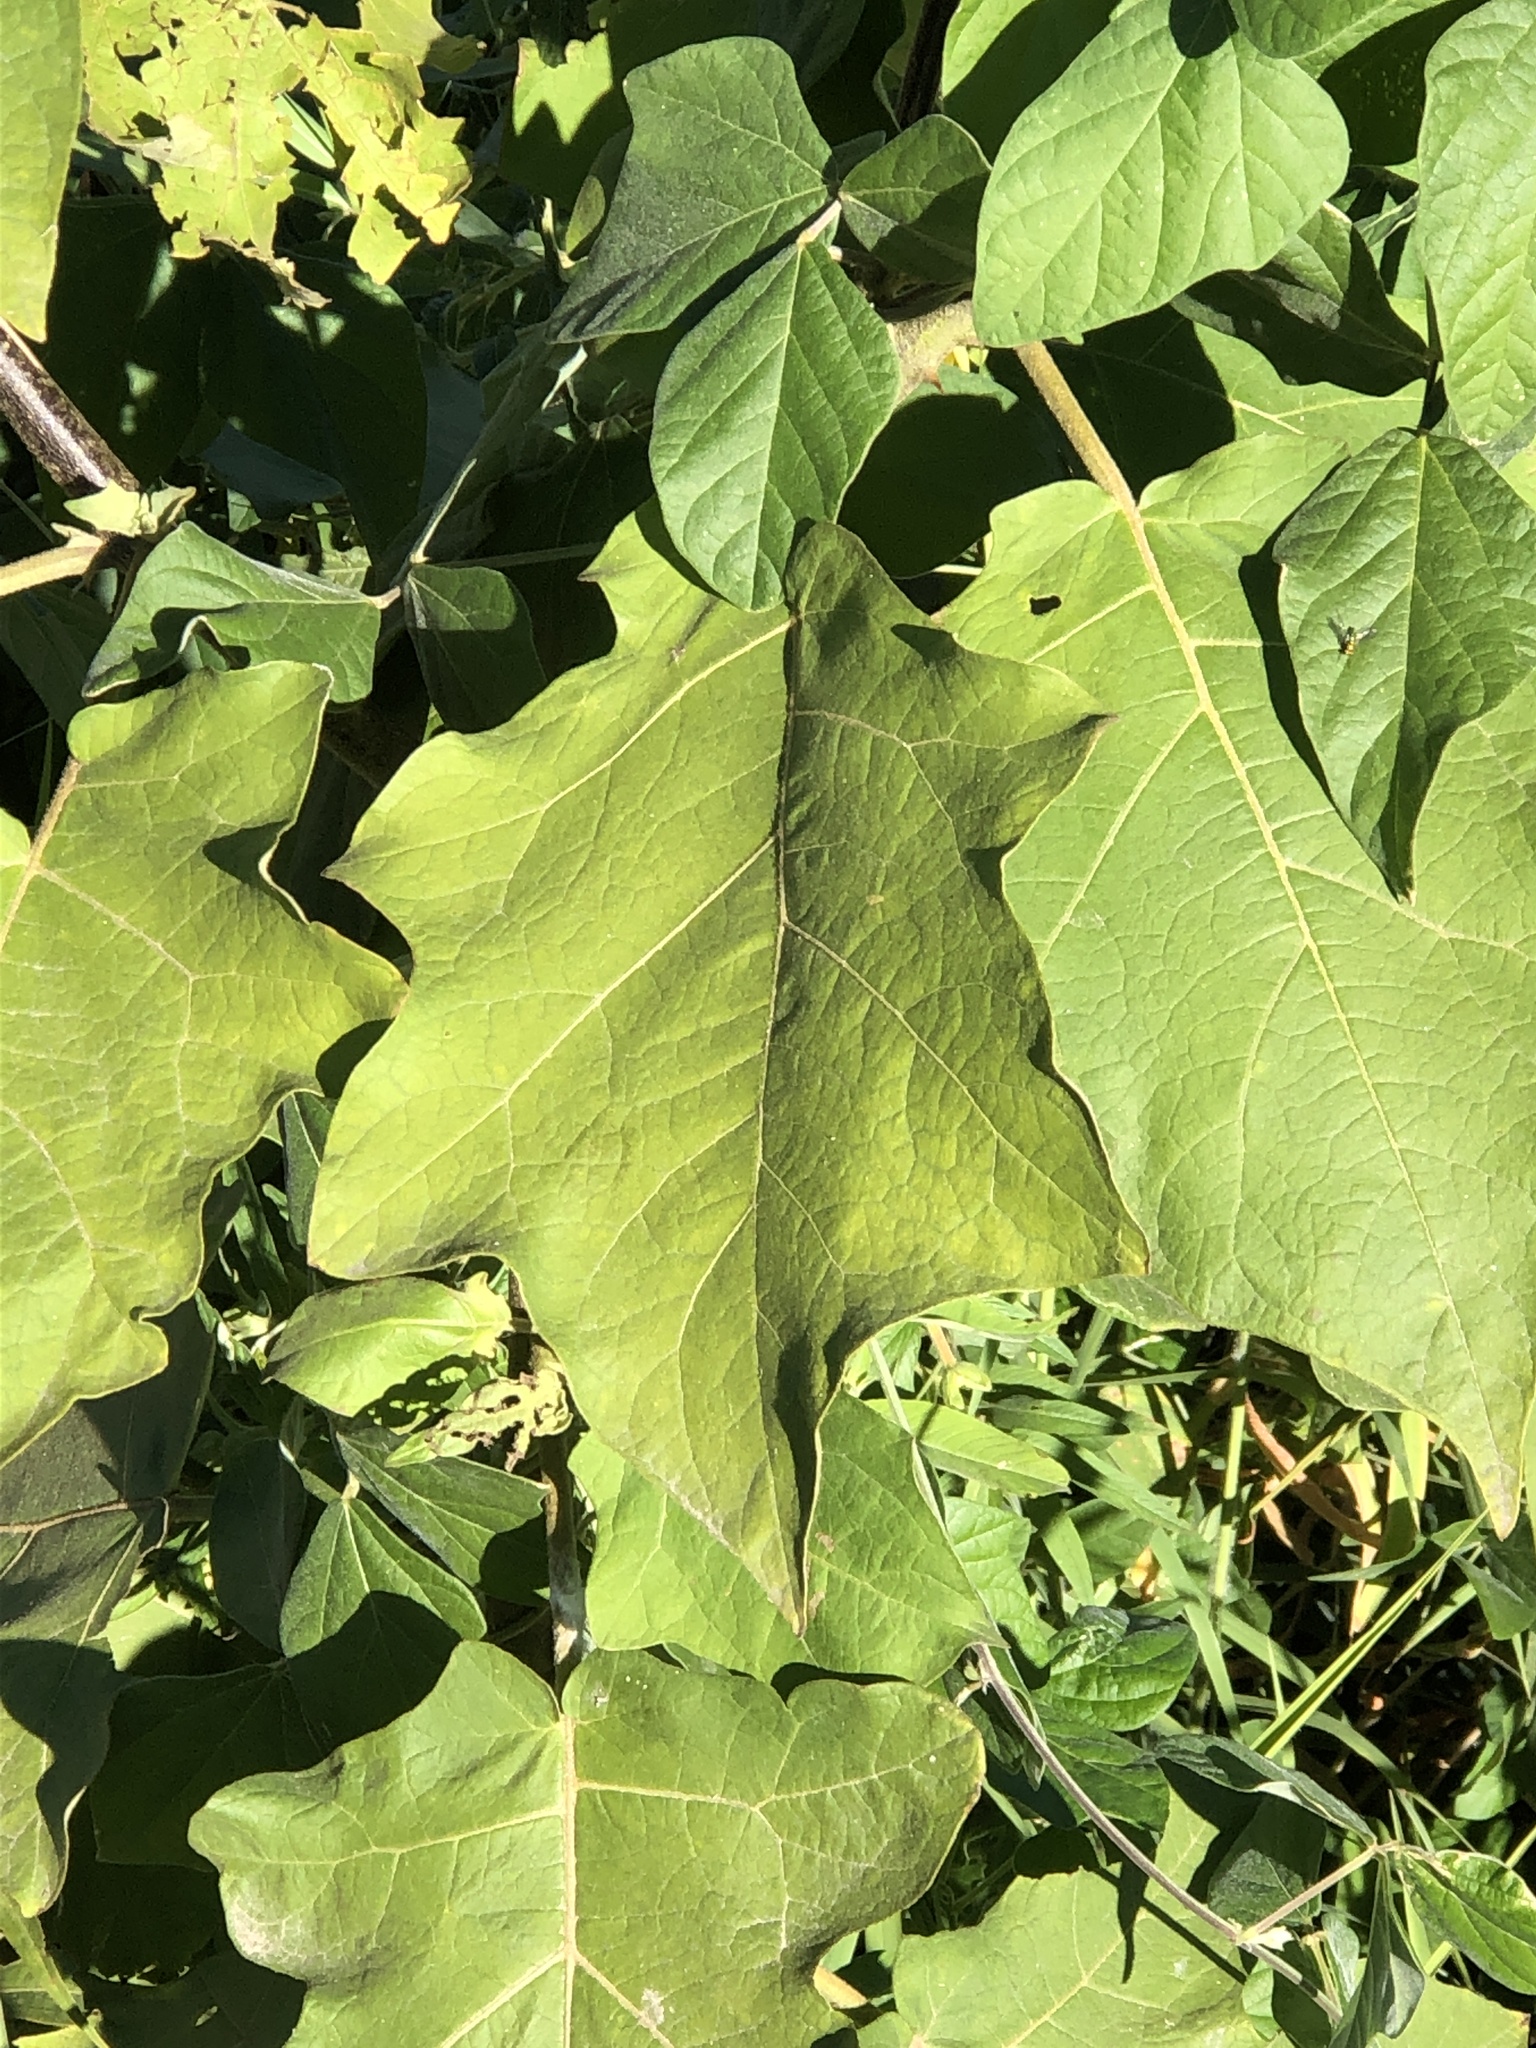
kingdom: Plantae
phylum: Tracheophyta
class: Magnoliopsida
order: Solanales
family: Solanaceae
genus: Solanum
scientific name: Solanum torvum
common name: Turkey berry
